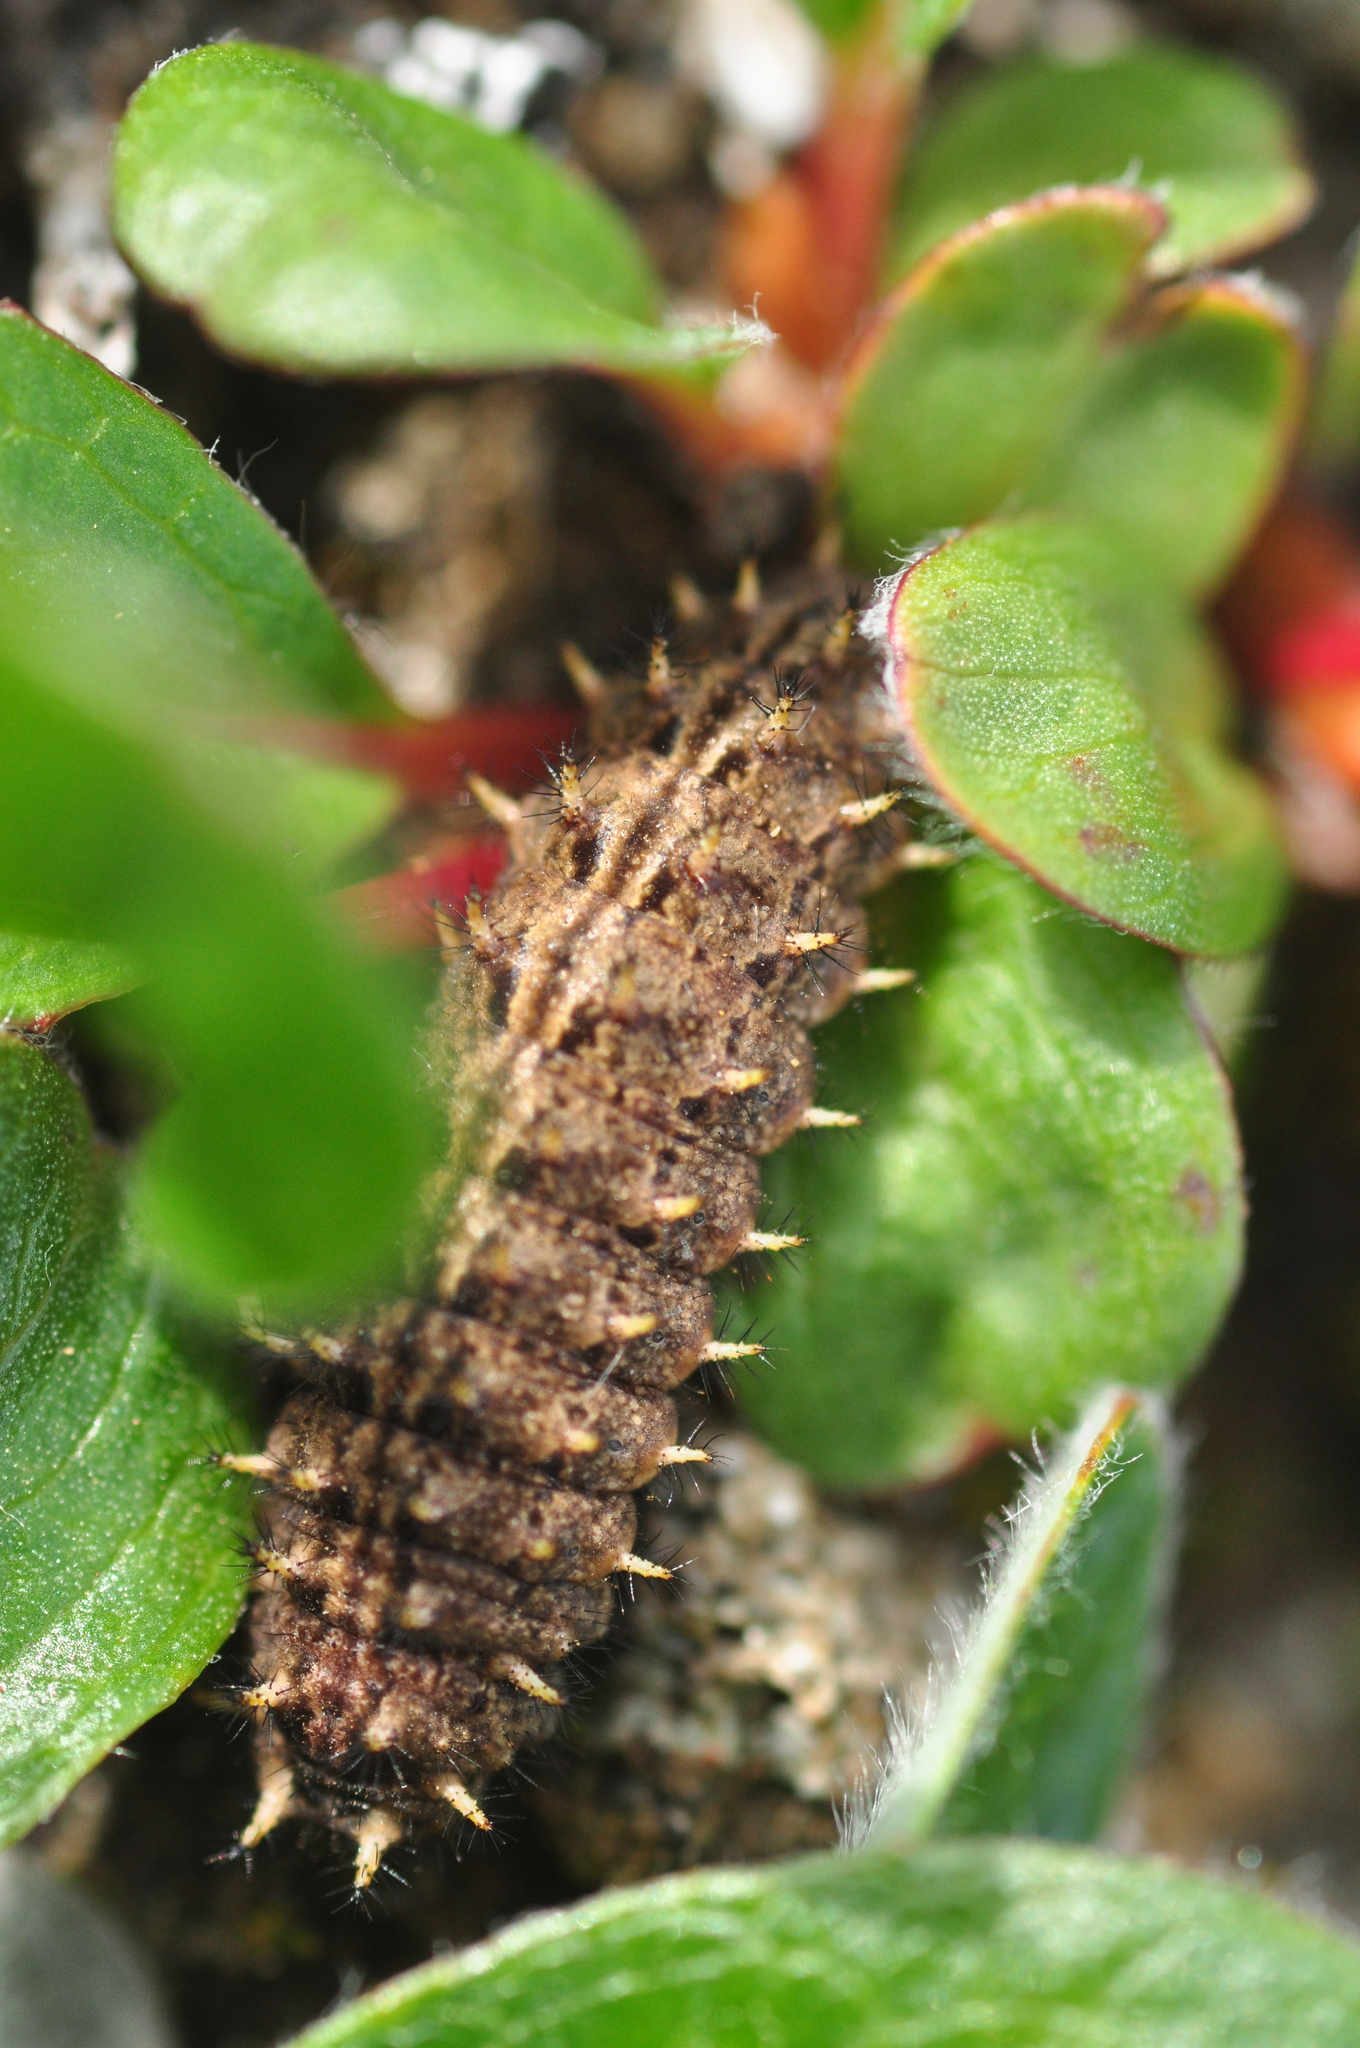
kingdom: Animalia
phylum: Arthropoda
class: Insecta
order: Lepidoptera
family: Nymphalidae
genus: Boloria
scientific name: Boloria chariclea
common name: Arctic fritillary
